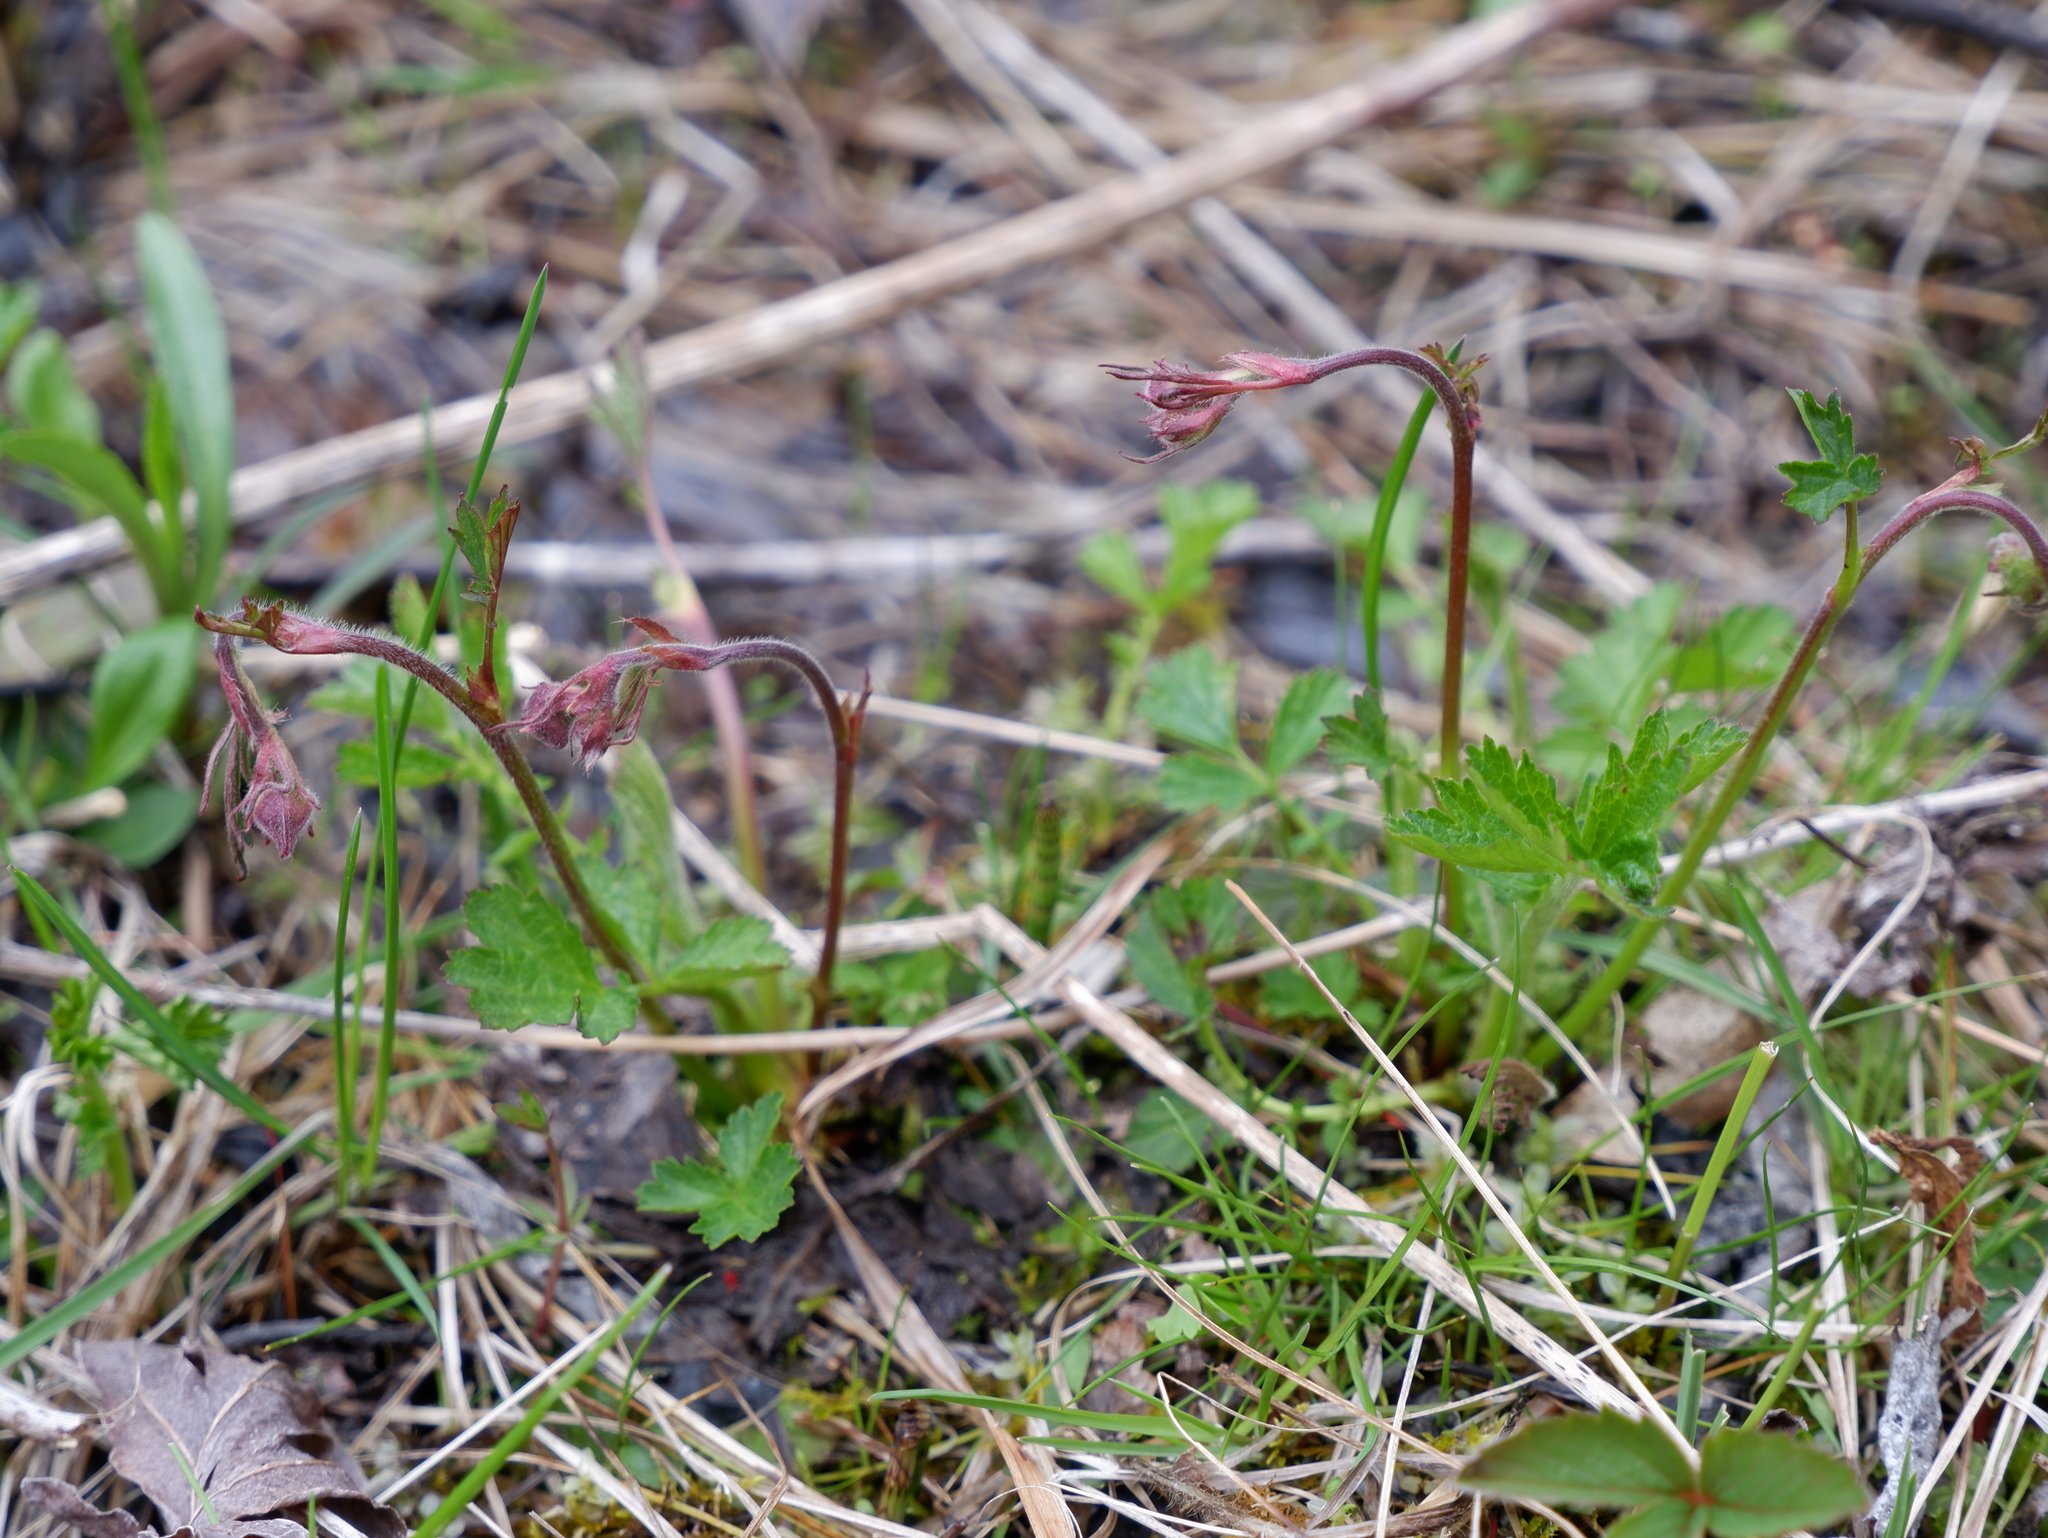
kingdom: Plantae
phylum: Tracheophyta
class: Magnoliopsida
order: Rosales
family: Rosaceae
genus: Geum
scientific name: Geum rivale
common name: Water avens
